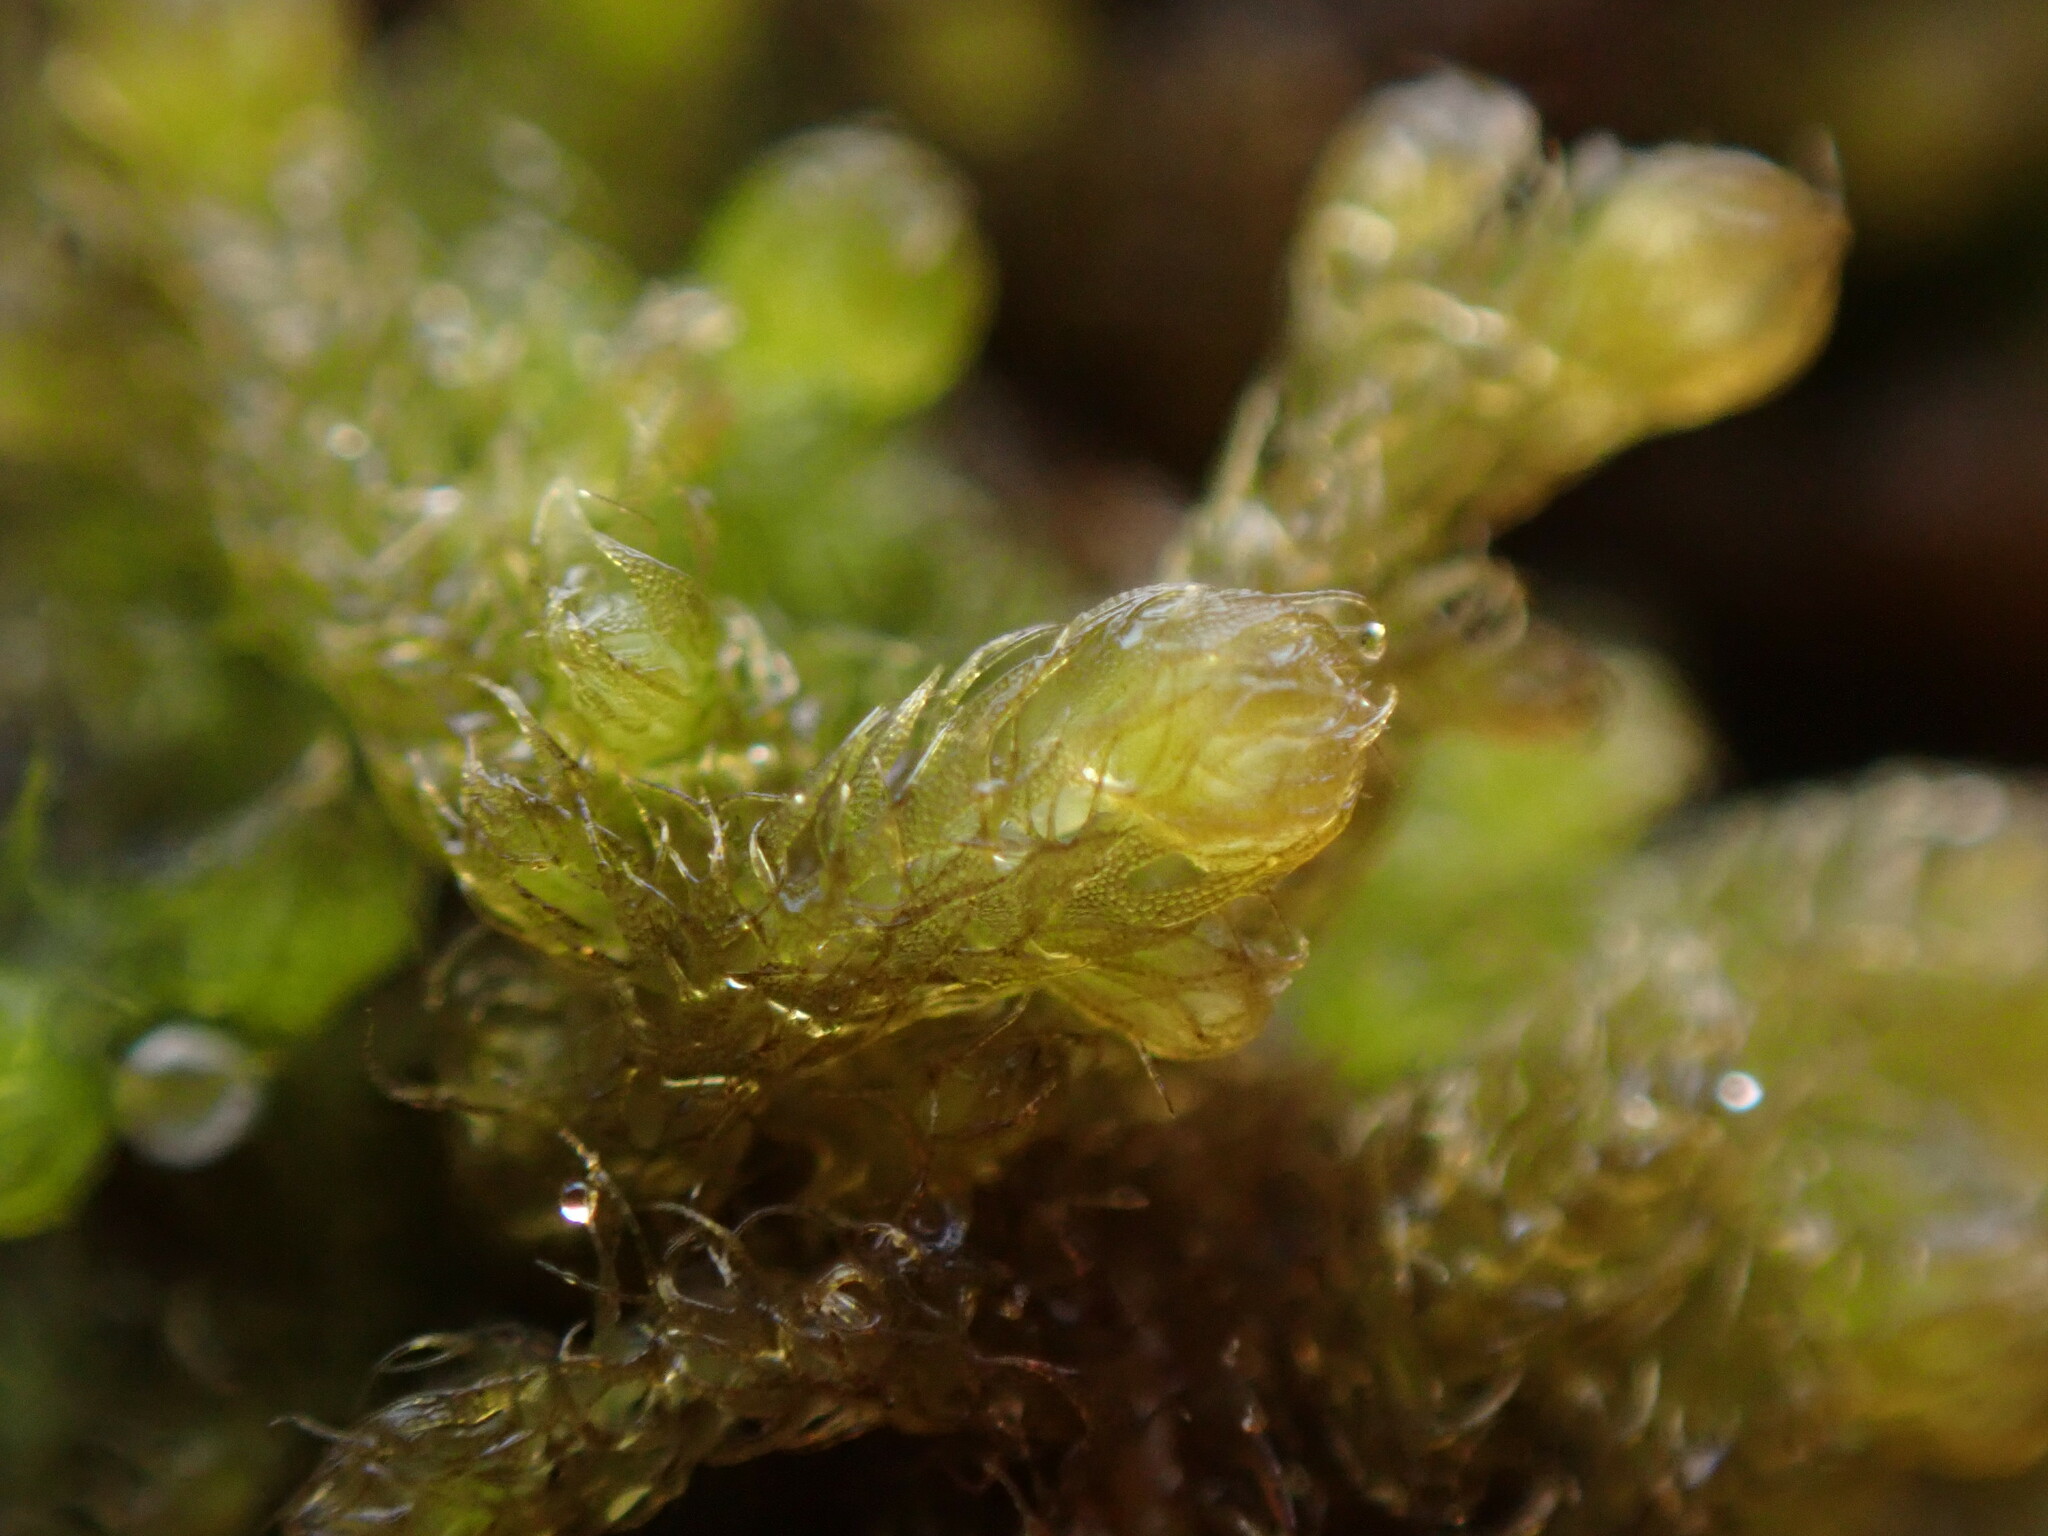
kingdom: Plantae
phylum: Marchantiophyta
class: Jungermanniopsida
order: Ptilidiales
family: Ptilidiaceae
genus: Ptilidium
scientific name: Ptilidium californicum
